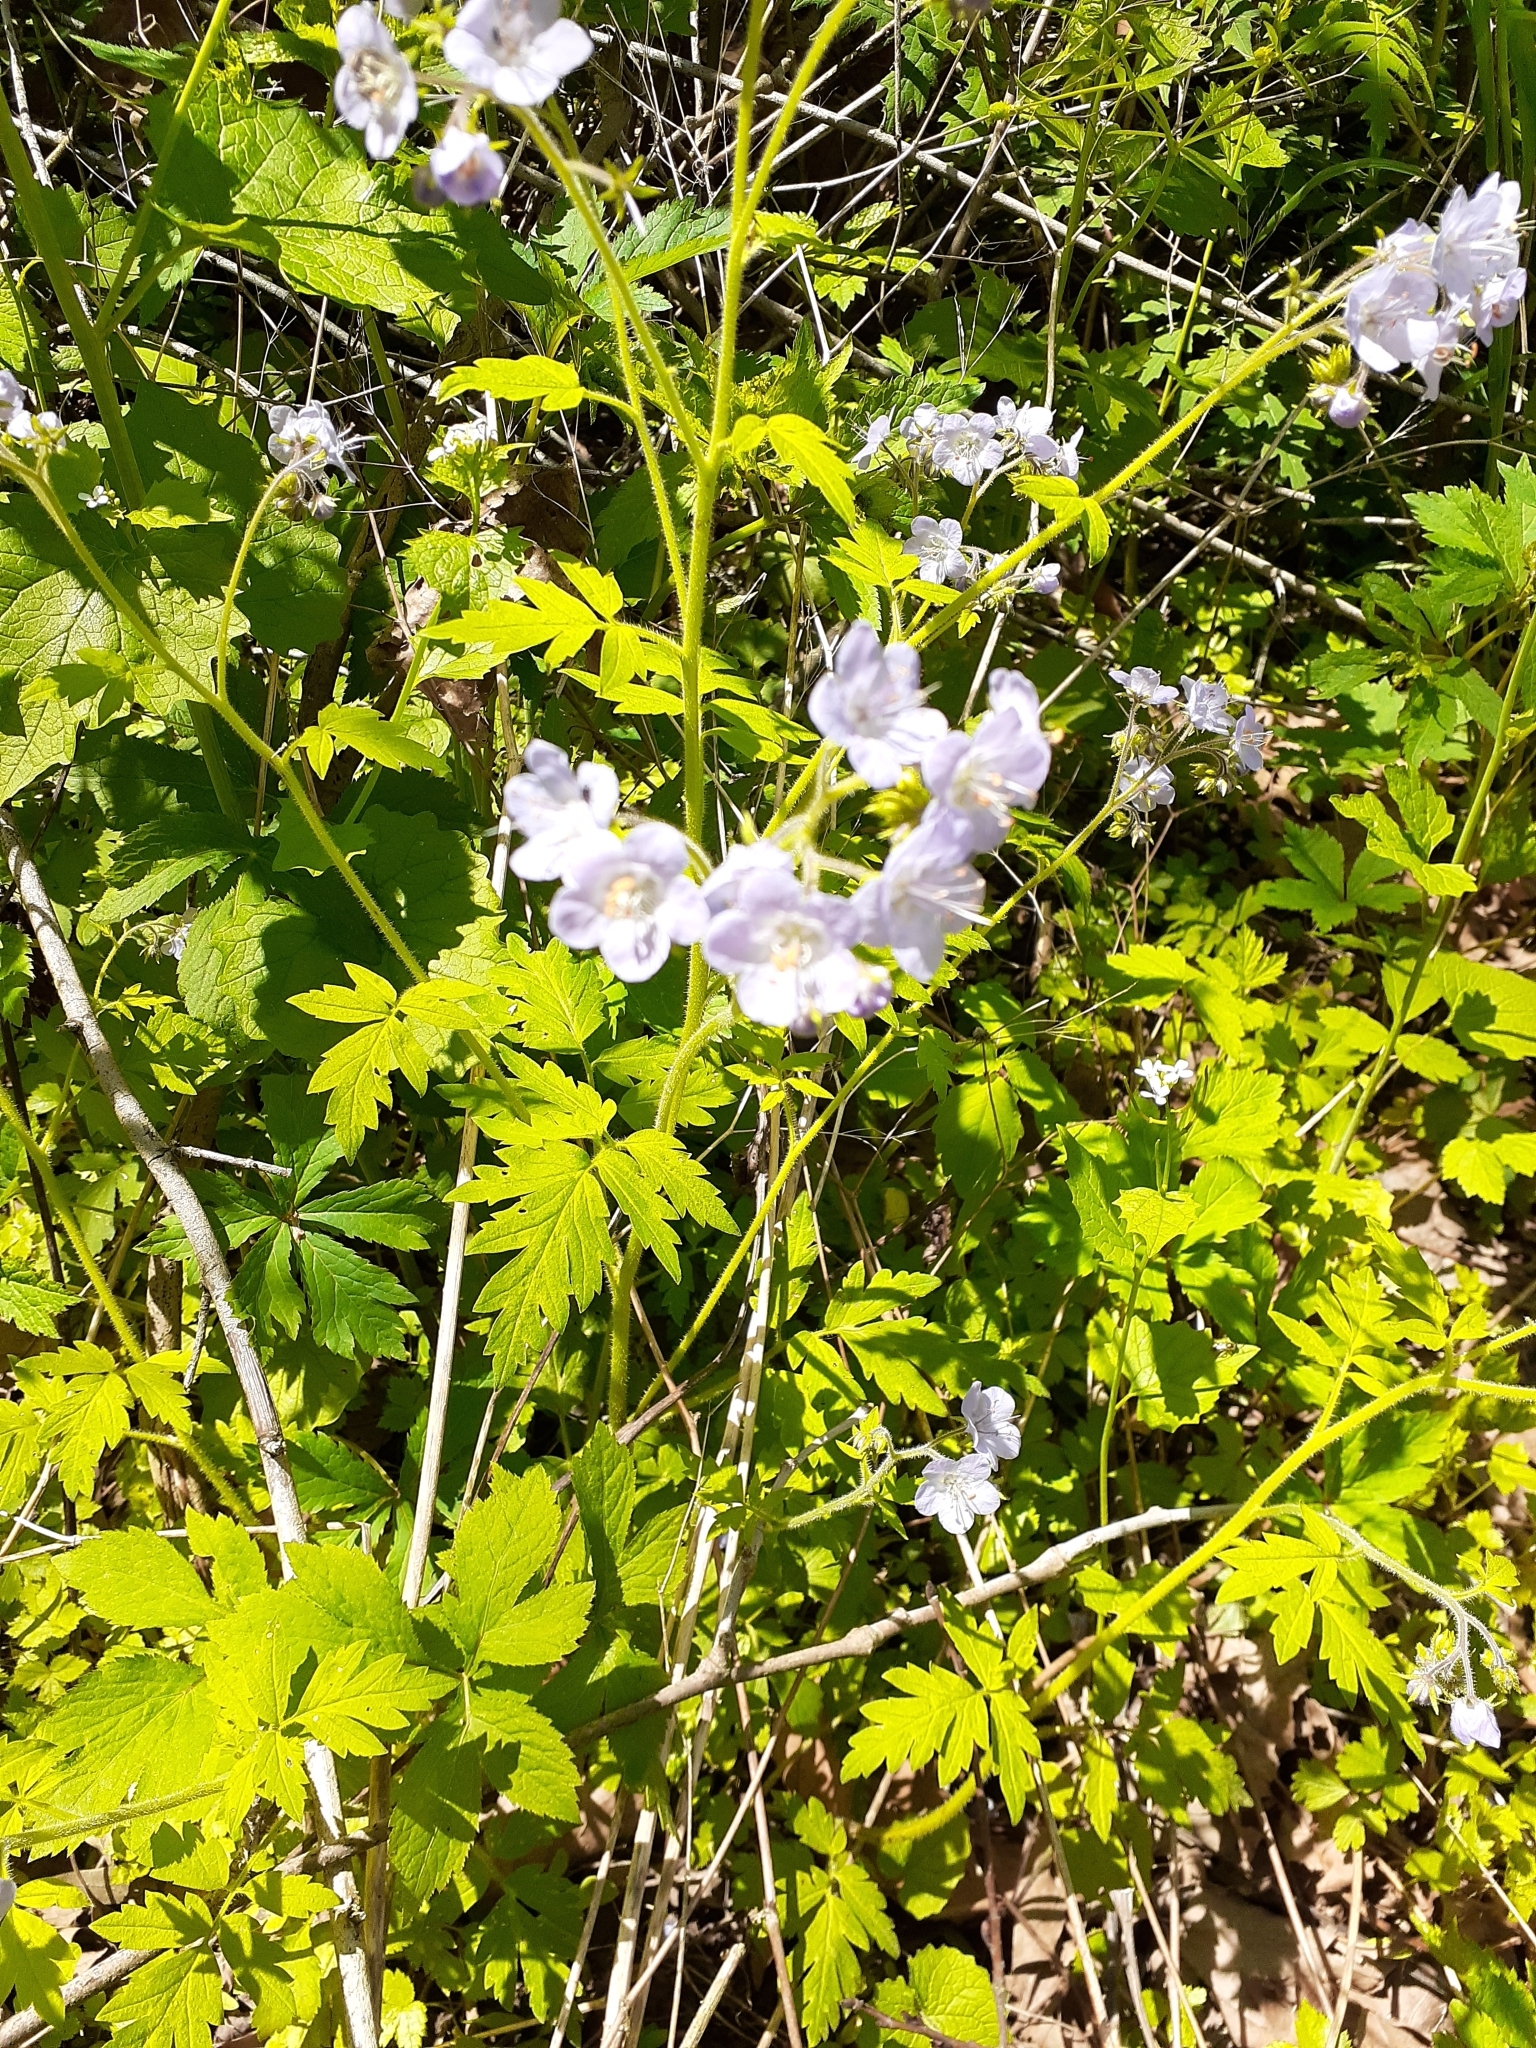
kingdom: Plantae
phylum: Tracheophyta
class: Magnoliopsida
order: Boraginales
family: Hydrophyllaceae
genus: Phacelia
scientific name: Phacelia bipinnatifida
